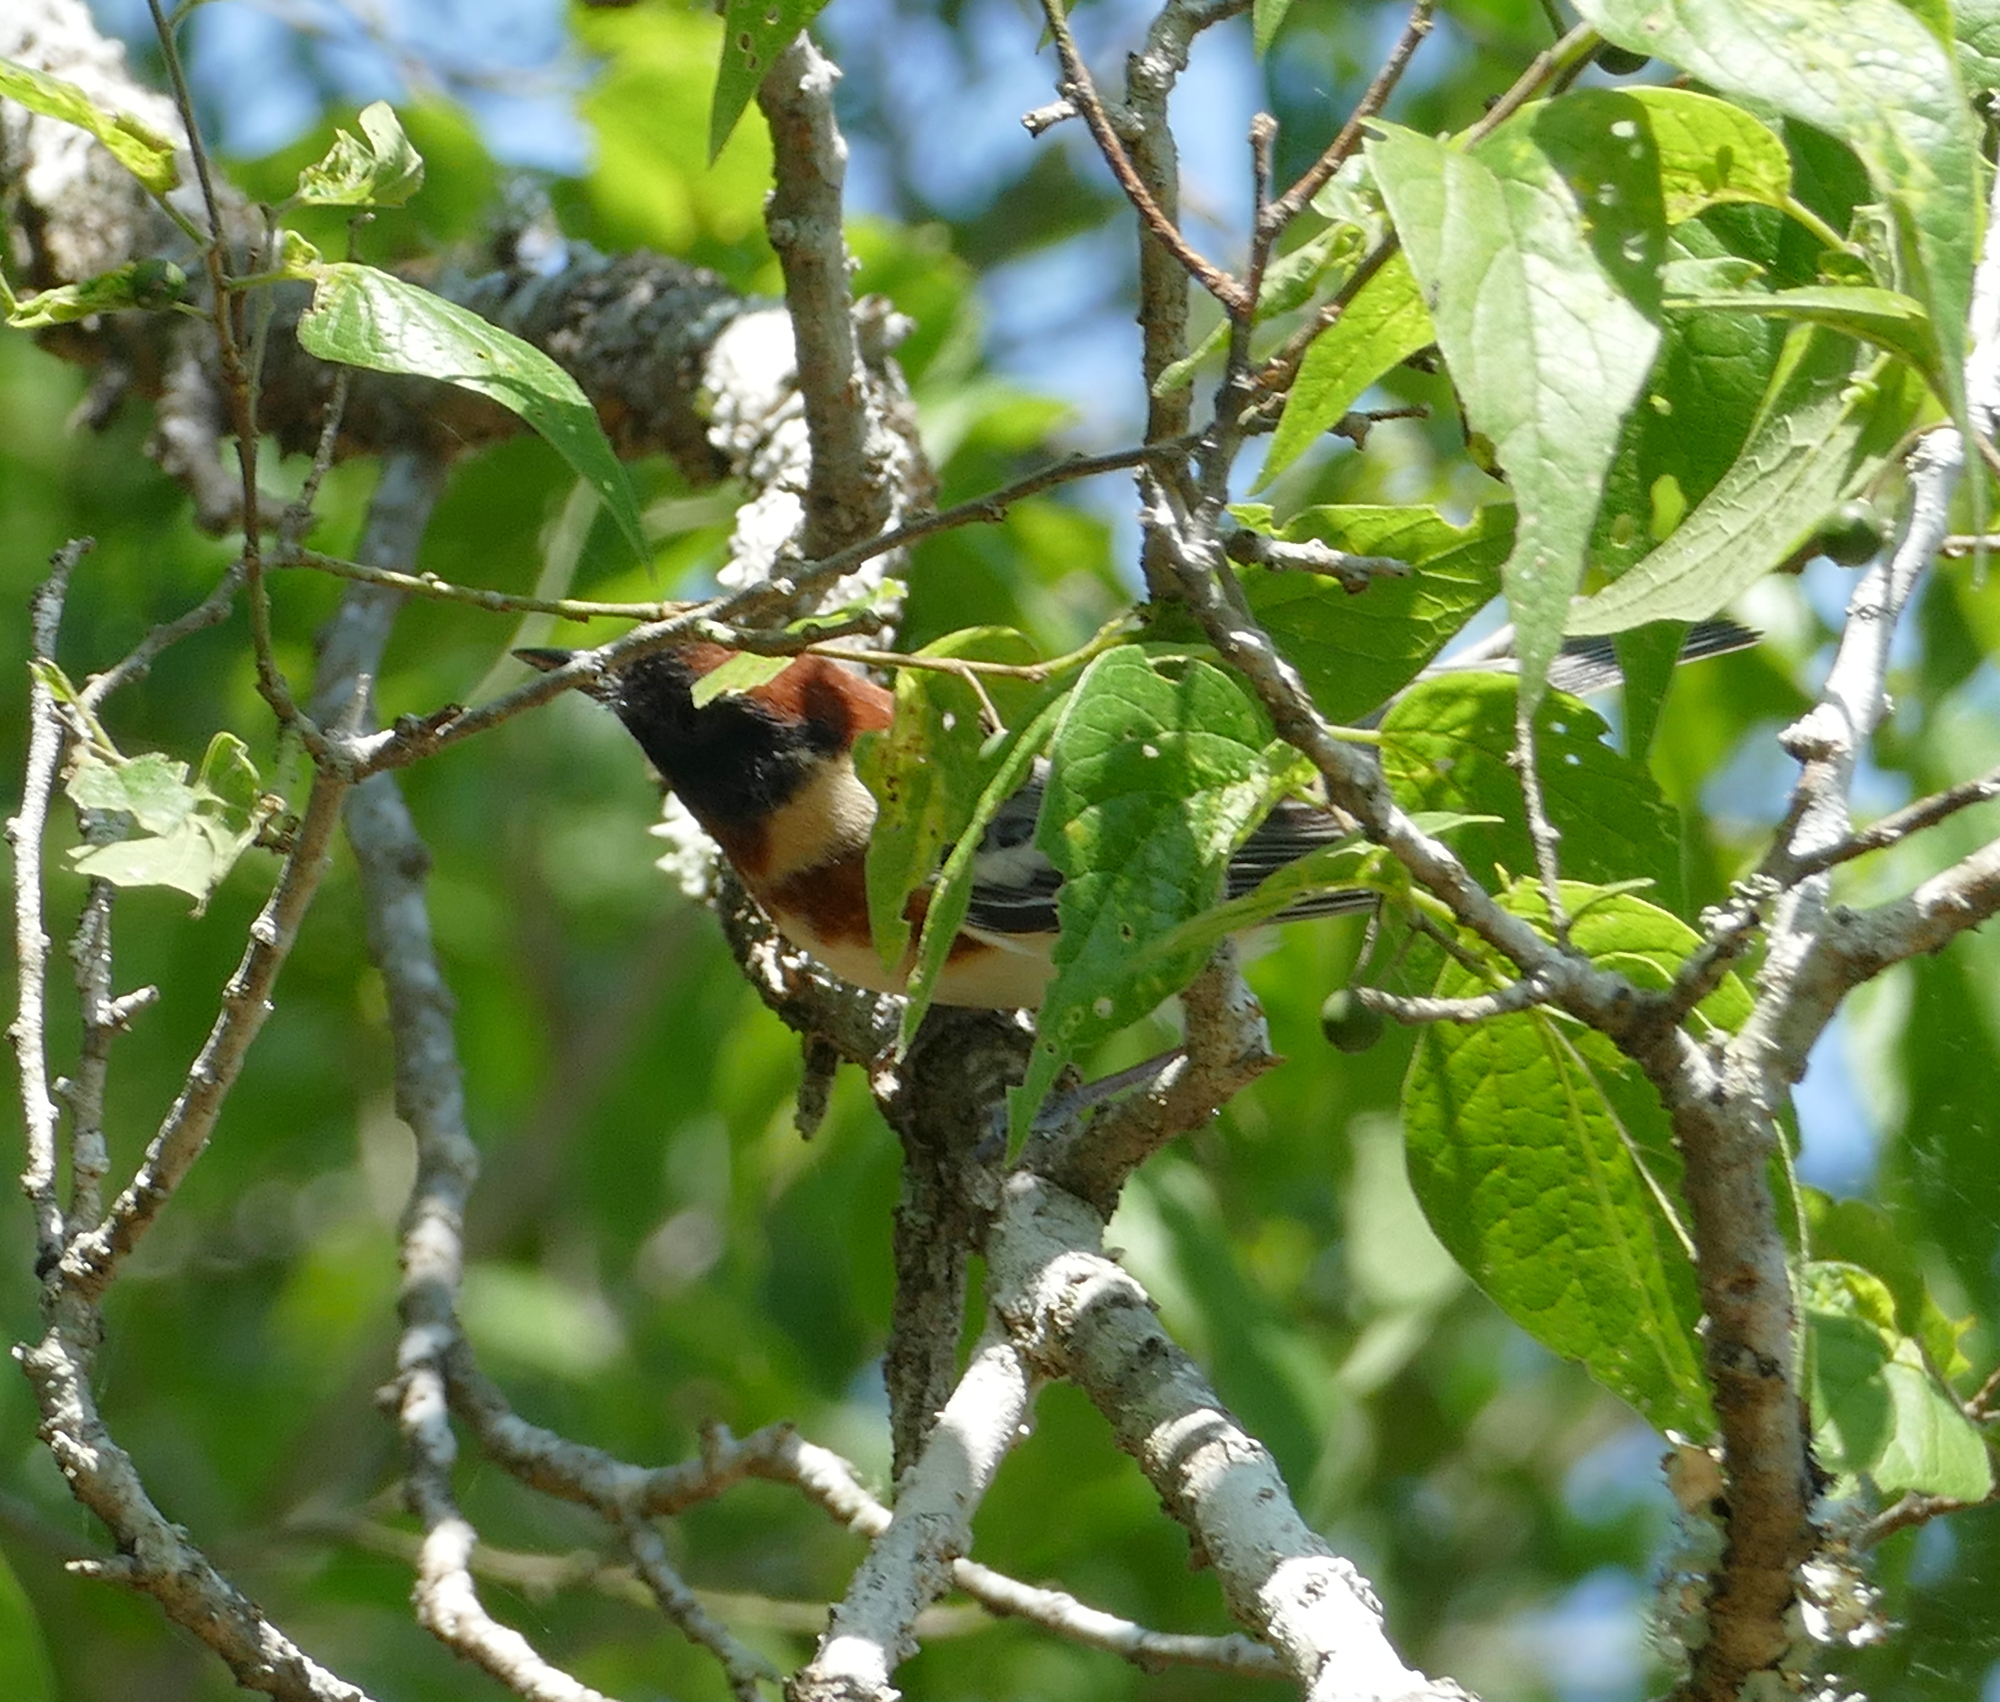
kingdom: Animalia
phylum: Chordata
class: Aves
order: Passeriformes
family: Parulidae
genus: Setophaga
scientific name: Setophaga castanea
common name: Bay-breasted warbler
